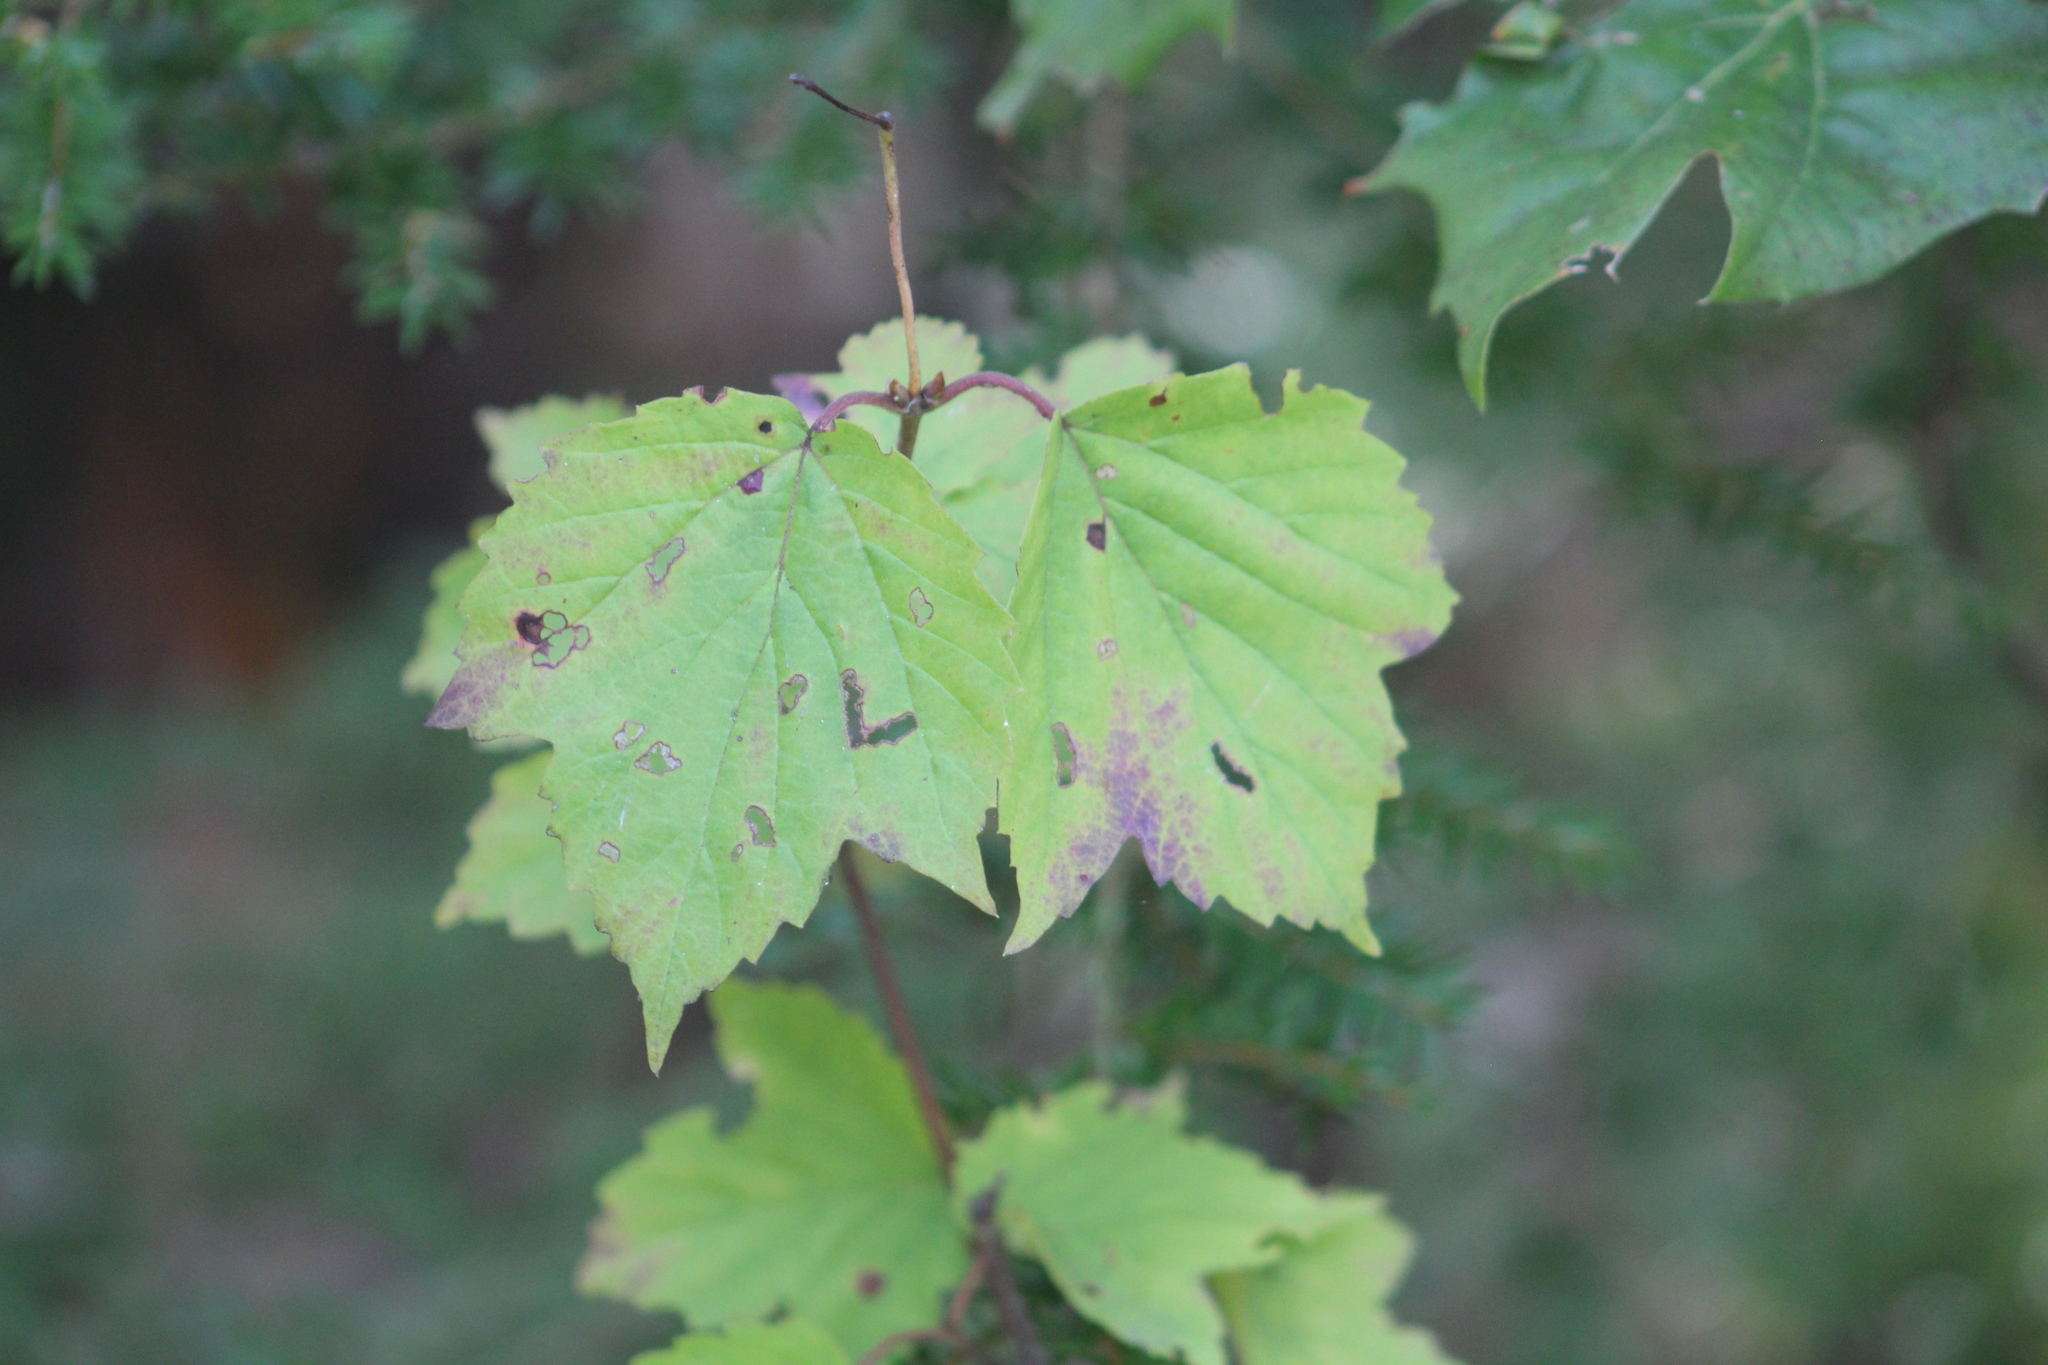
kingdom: Plantae
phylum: Tracheophyta
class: Magnoliopsida
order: Dipsacales
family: Viburnaceae
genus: Viburnum
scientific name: Viburnum acerifolium
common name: Dockmackie
